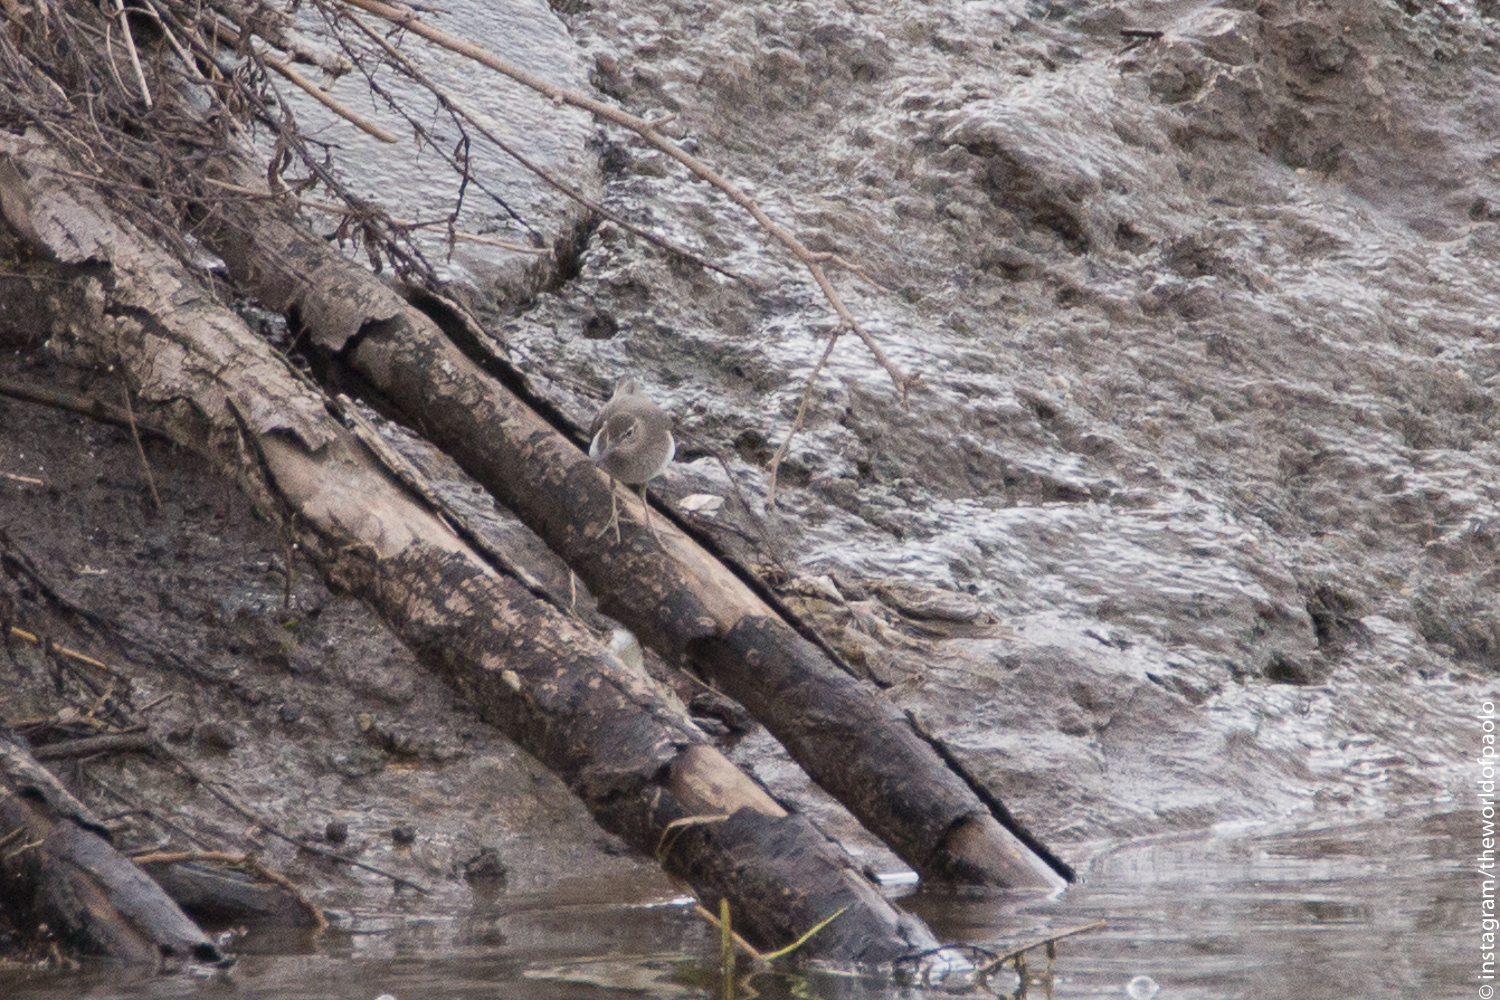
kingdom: Animalia
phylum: Chordata
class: Aves
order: Charadriiformes
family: Scolopacidae
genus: Actitis
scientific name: Actitis hypoleucos
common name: Common sandpiper
